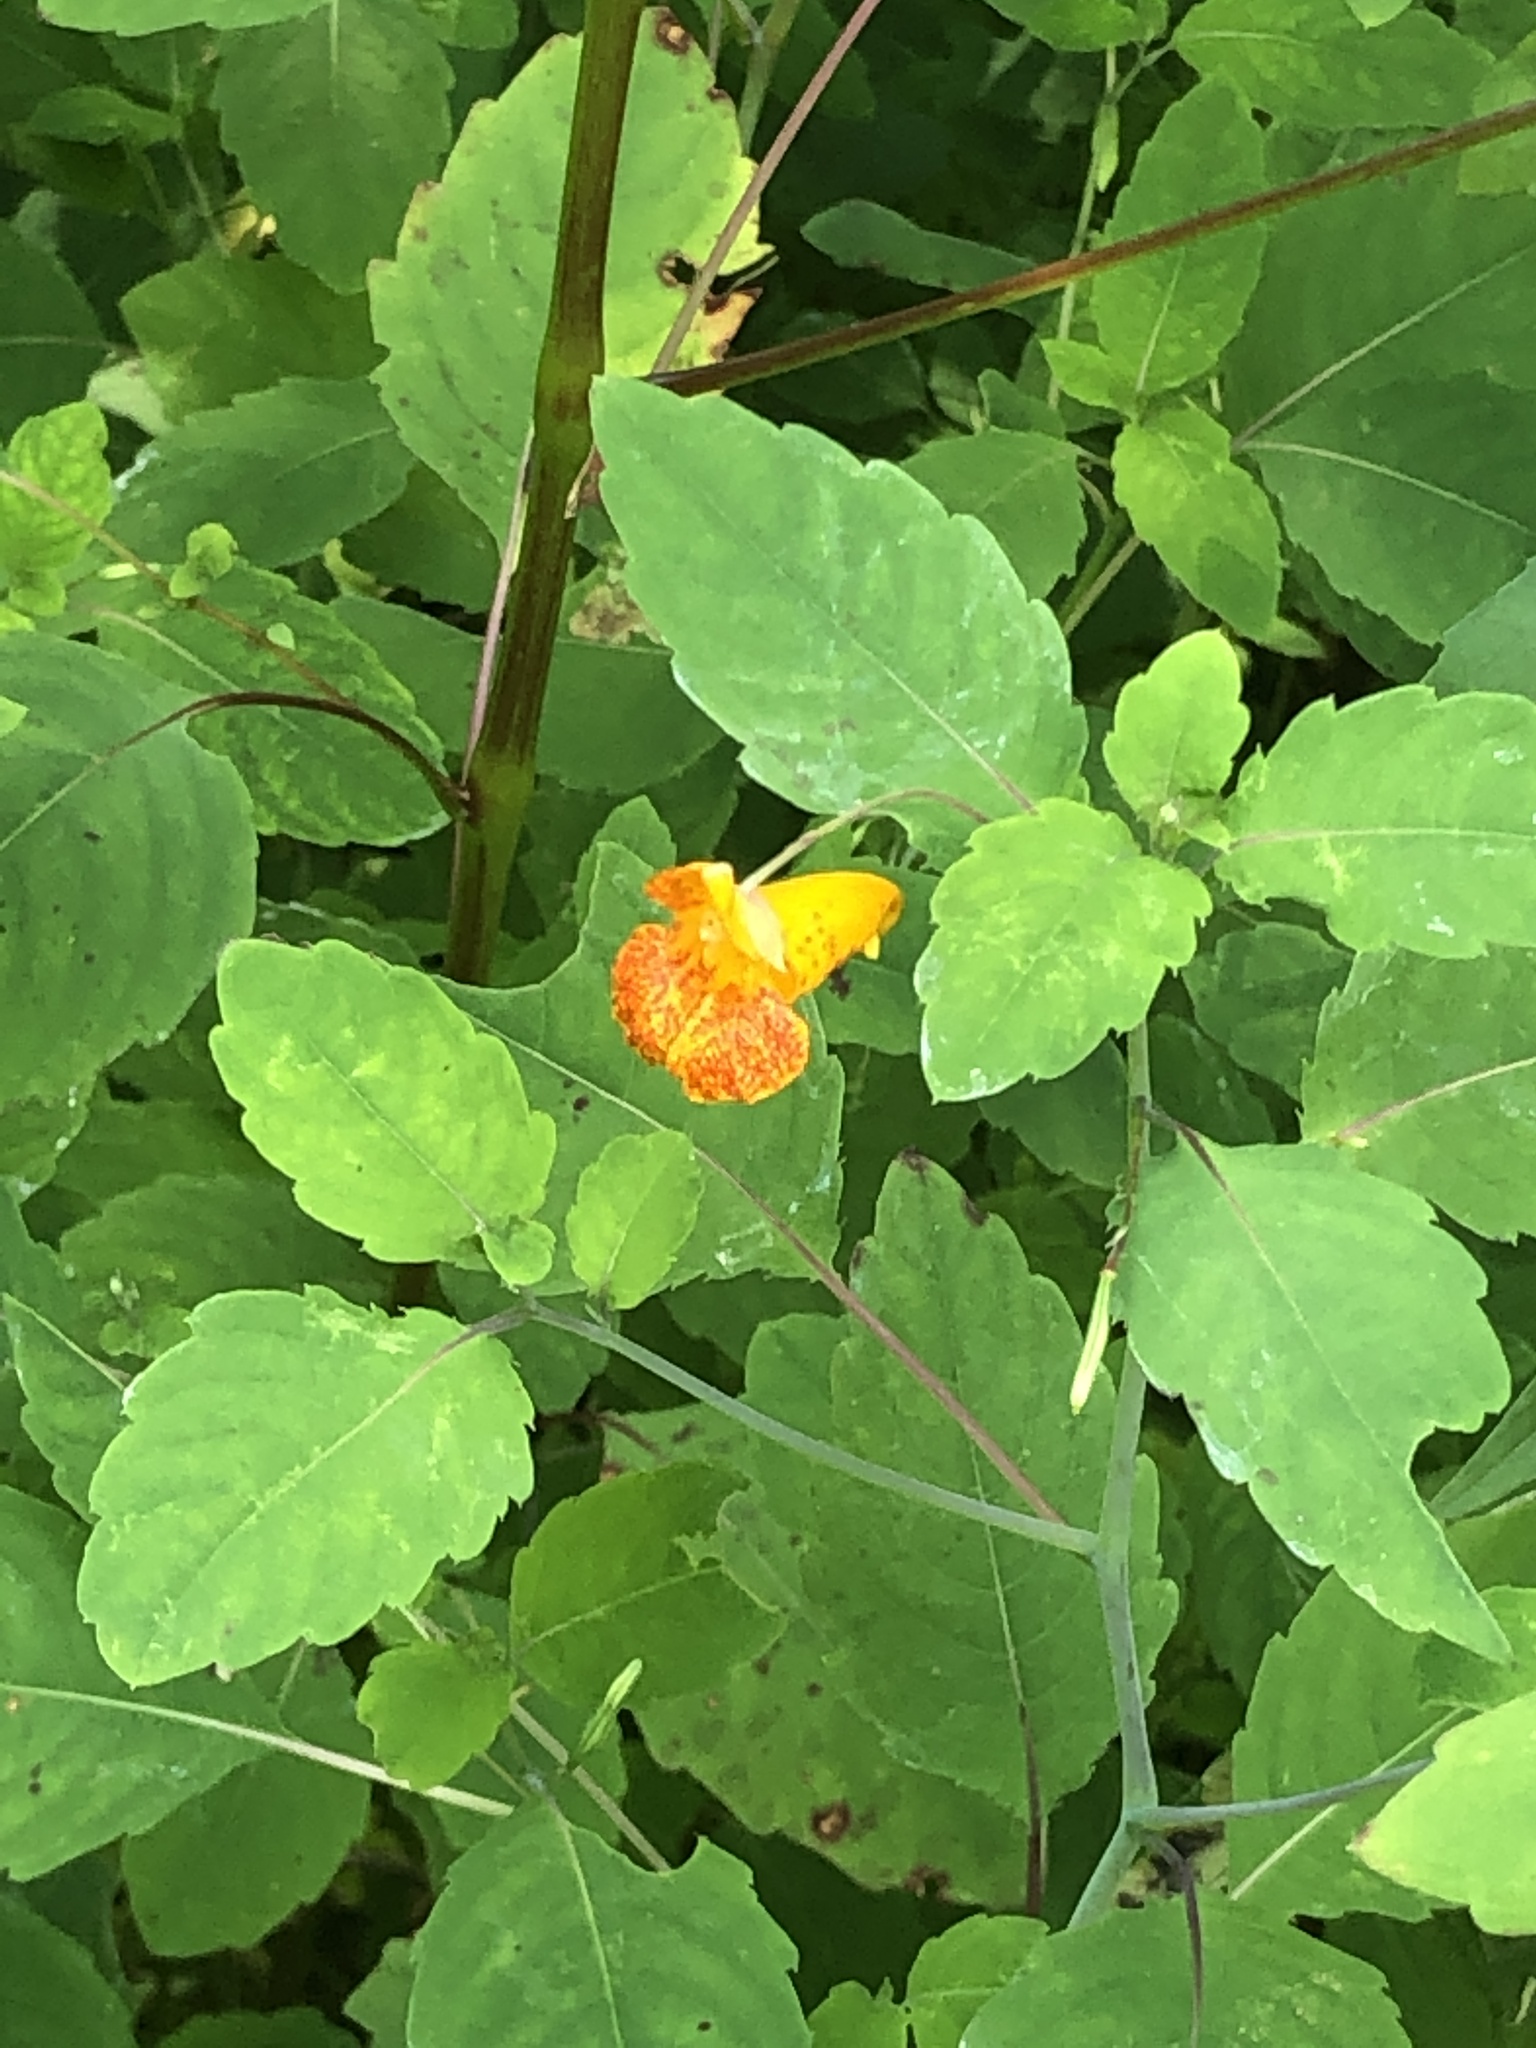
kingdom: Plantae
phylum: Tracheophyta
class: Magnoliopsida
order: Ericales
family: Balsaminaceae
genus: Impatiens
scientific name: Impatiens capensis
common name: Orange balsam
